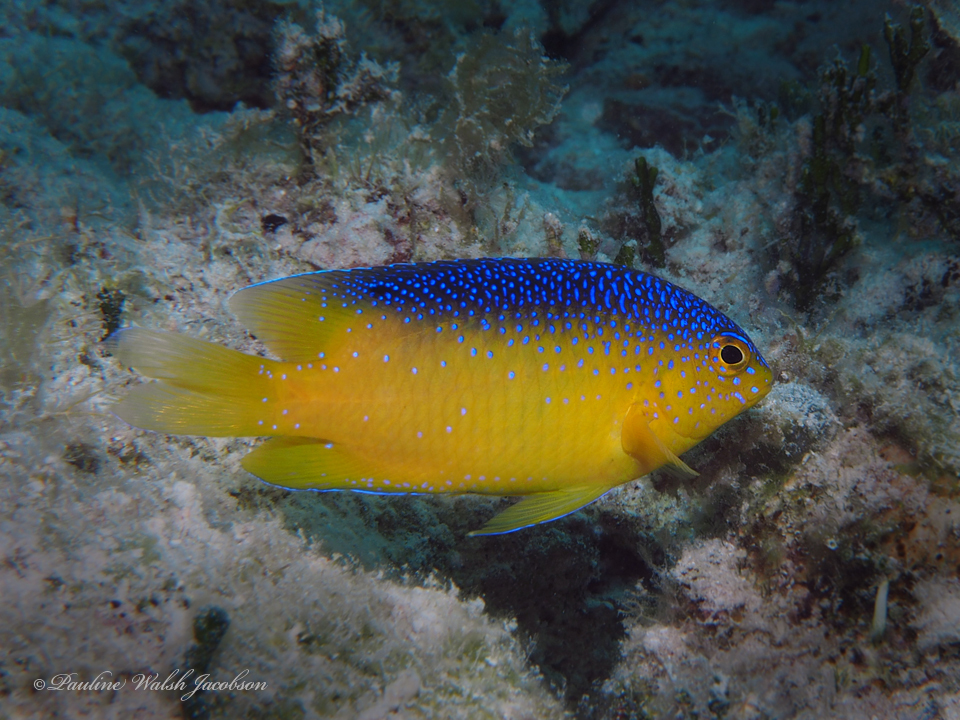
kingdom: Animalia
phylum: Chordata
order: Perciformes
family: Pomacentridae
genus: Stegastes
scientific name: Stegastes leucostictus
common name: Beaugregory
